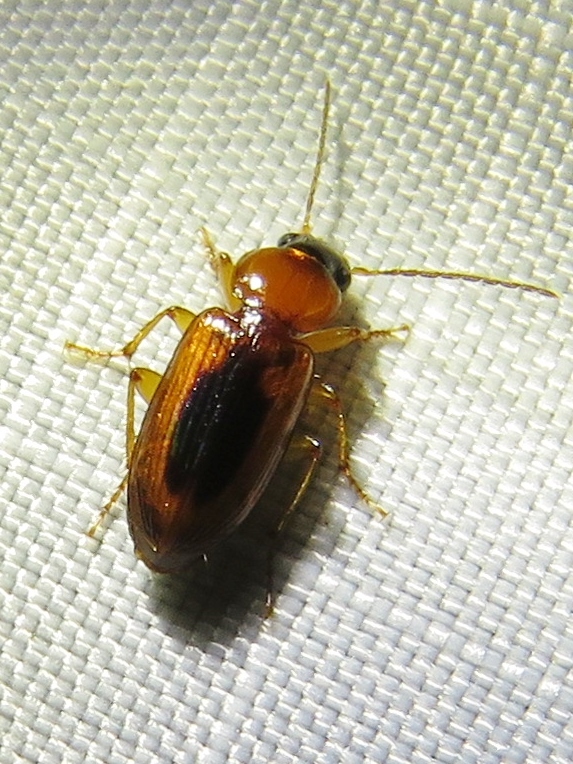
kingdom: Animalia
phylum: Arthropoda
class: Insecta
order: Coleoptera
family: Carabidae
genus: Stenolophus
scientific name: Stenolophus lecontei
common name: Leconte's seedcorn beetle
